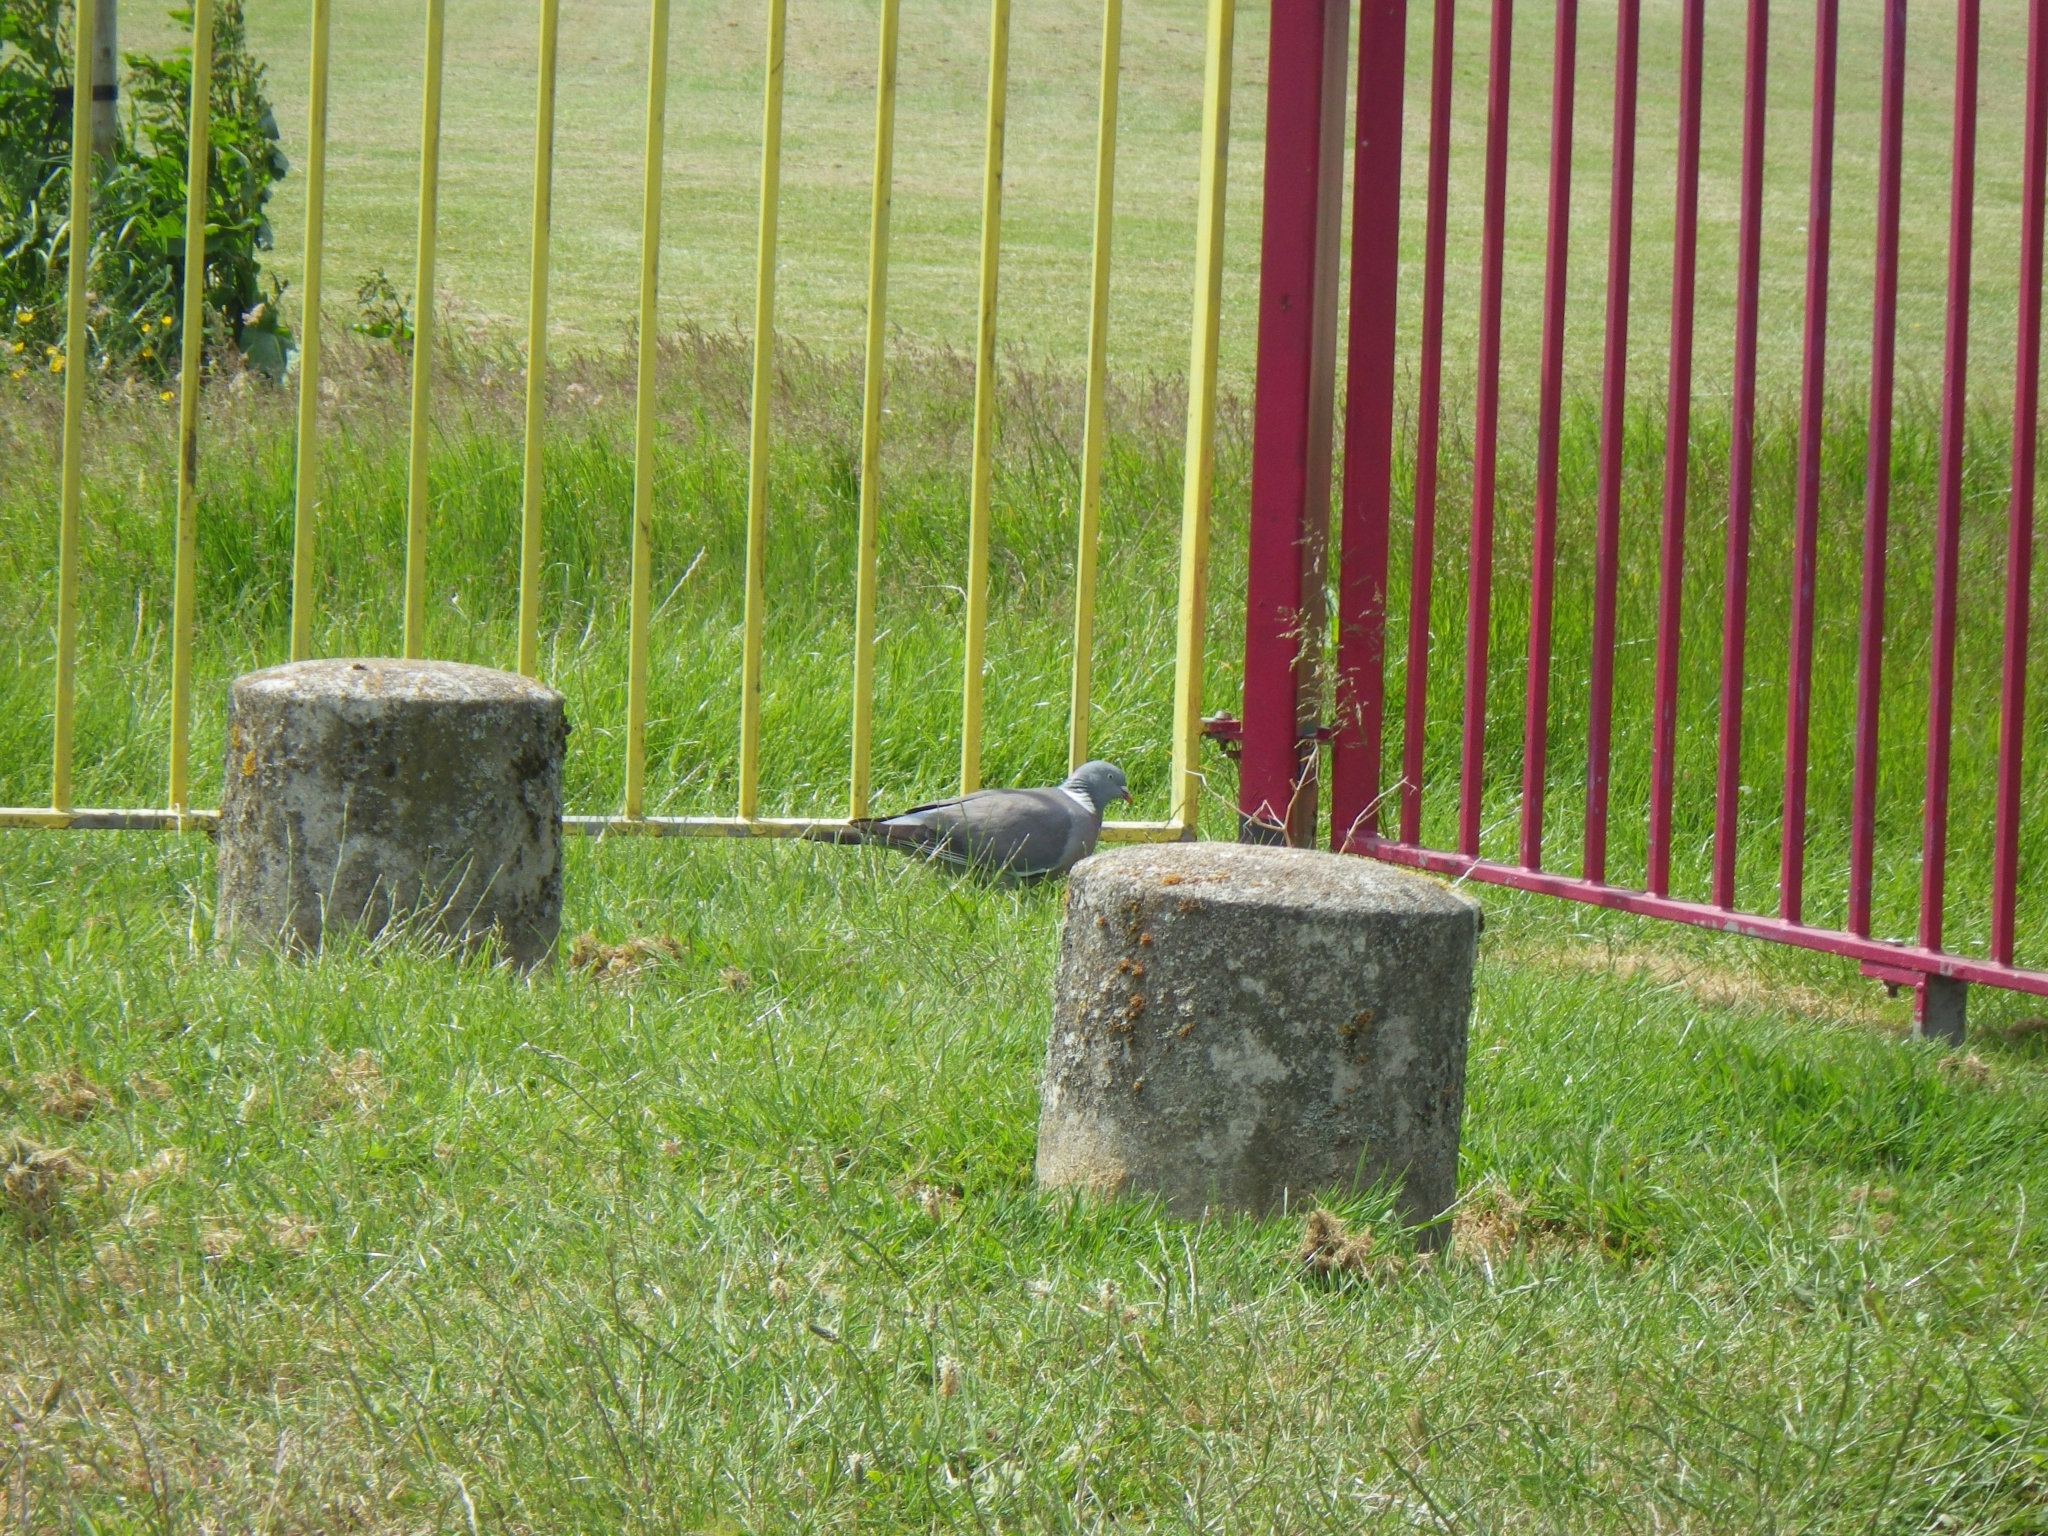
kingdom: Animalia
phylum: Chordata
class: Aves
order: Columbiformes
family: Columbidae
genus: Columba
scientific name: Columba palumbus
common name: Common wood pigeon
